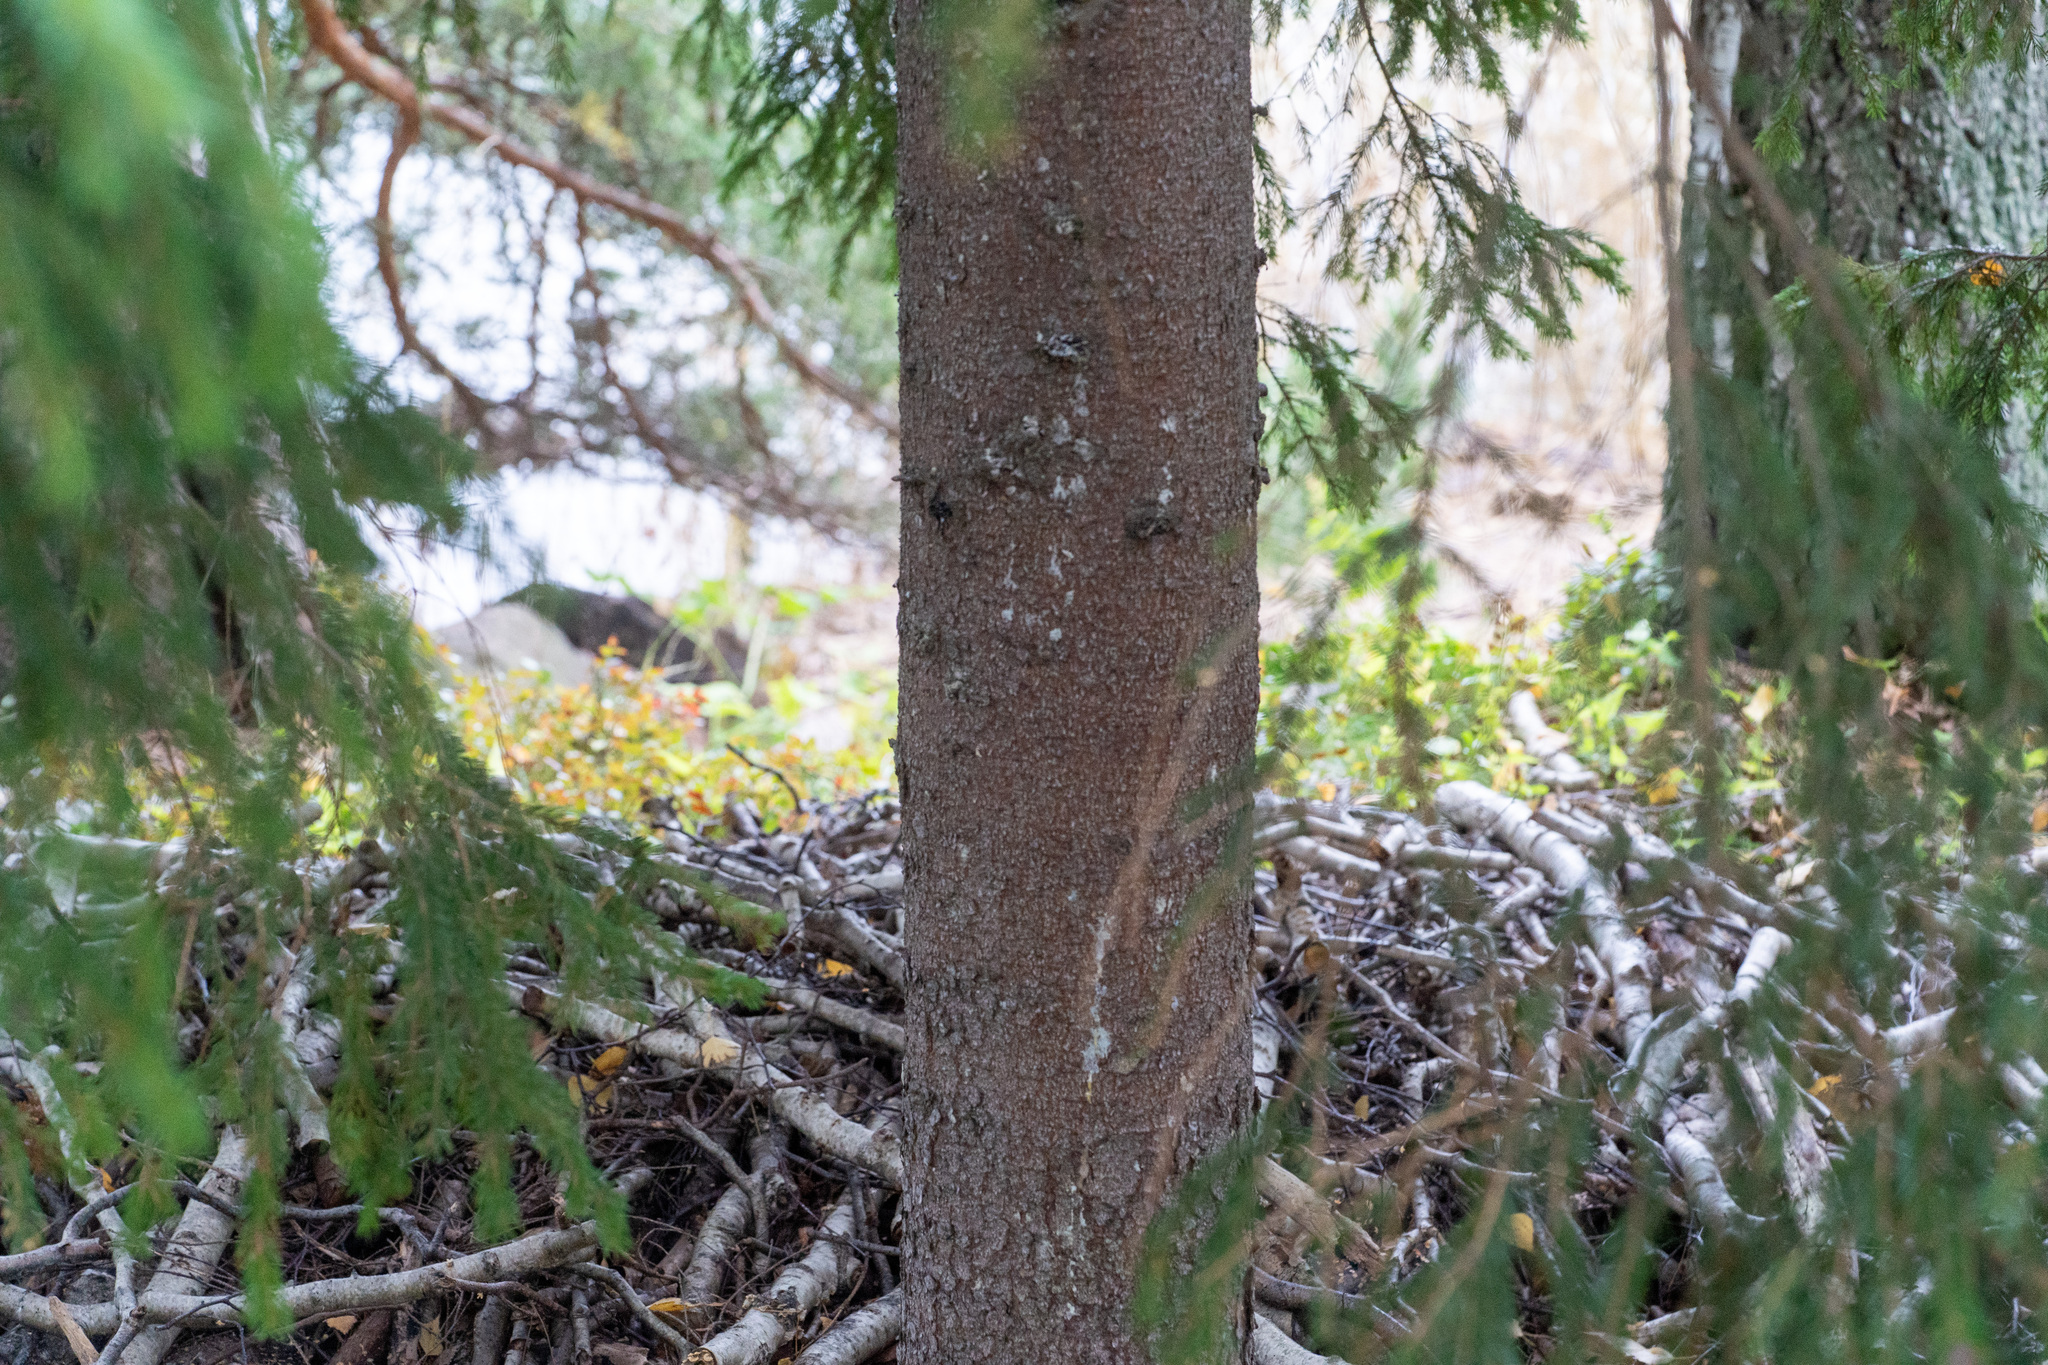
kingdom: Plantae
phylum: Tracheophyta
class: Pinopsida
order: Pinales
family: Pinaceae
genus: Picea
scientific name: Picea abies
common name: Norway spruce
